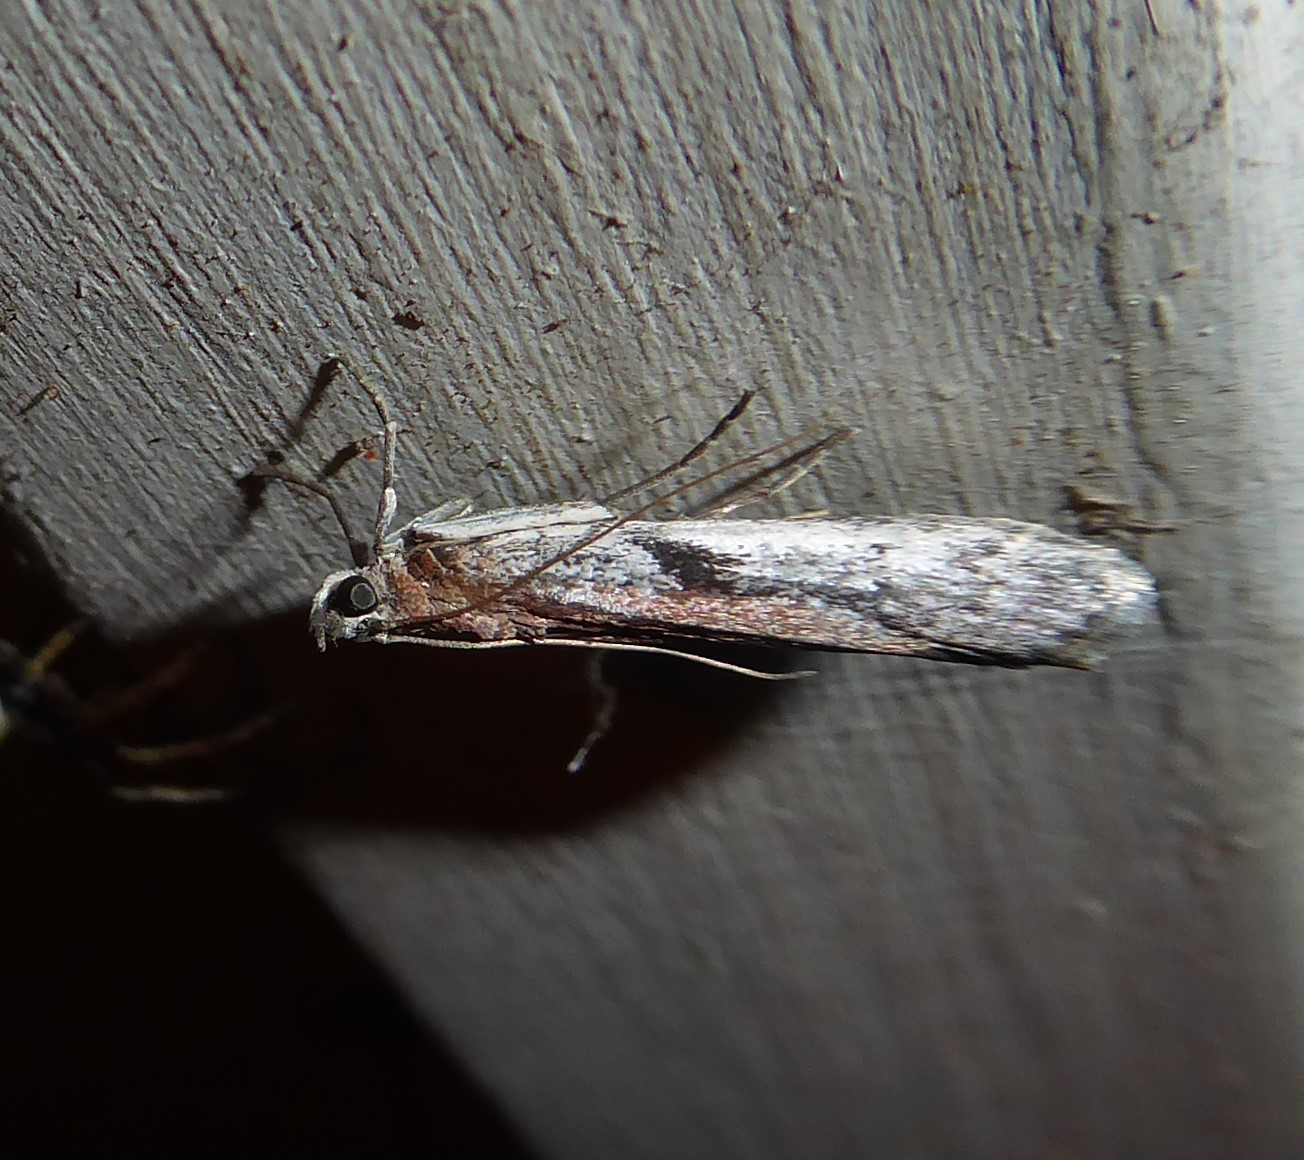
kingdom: Animalia
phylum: Arthropoda
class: Insecta
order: Lepidoptera
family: Pyralidae
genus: Patagoniodes
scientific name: Patagoniodes farinaria
